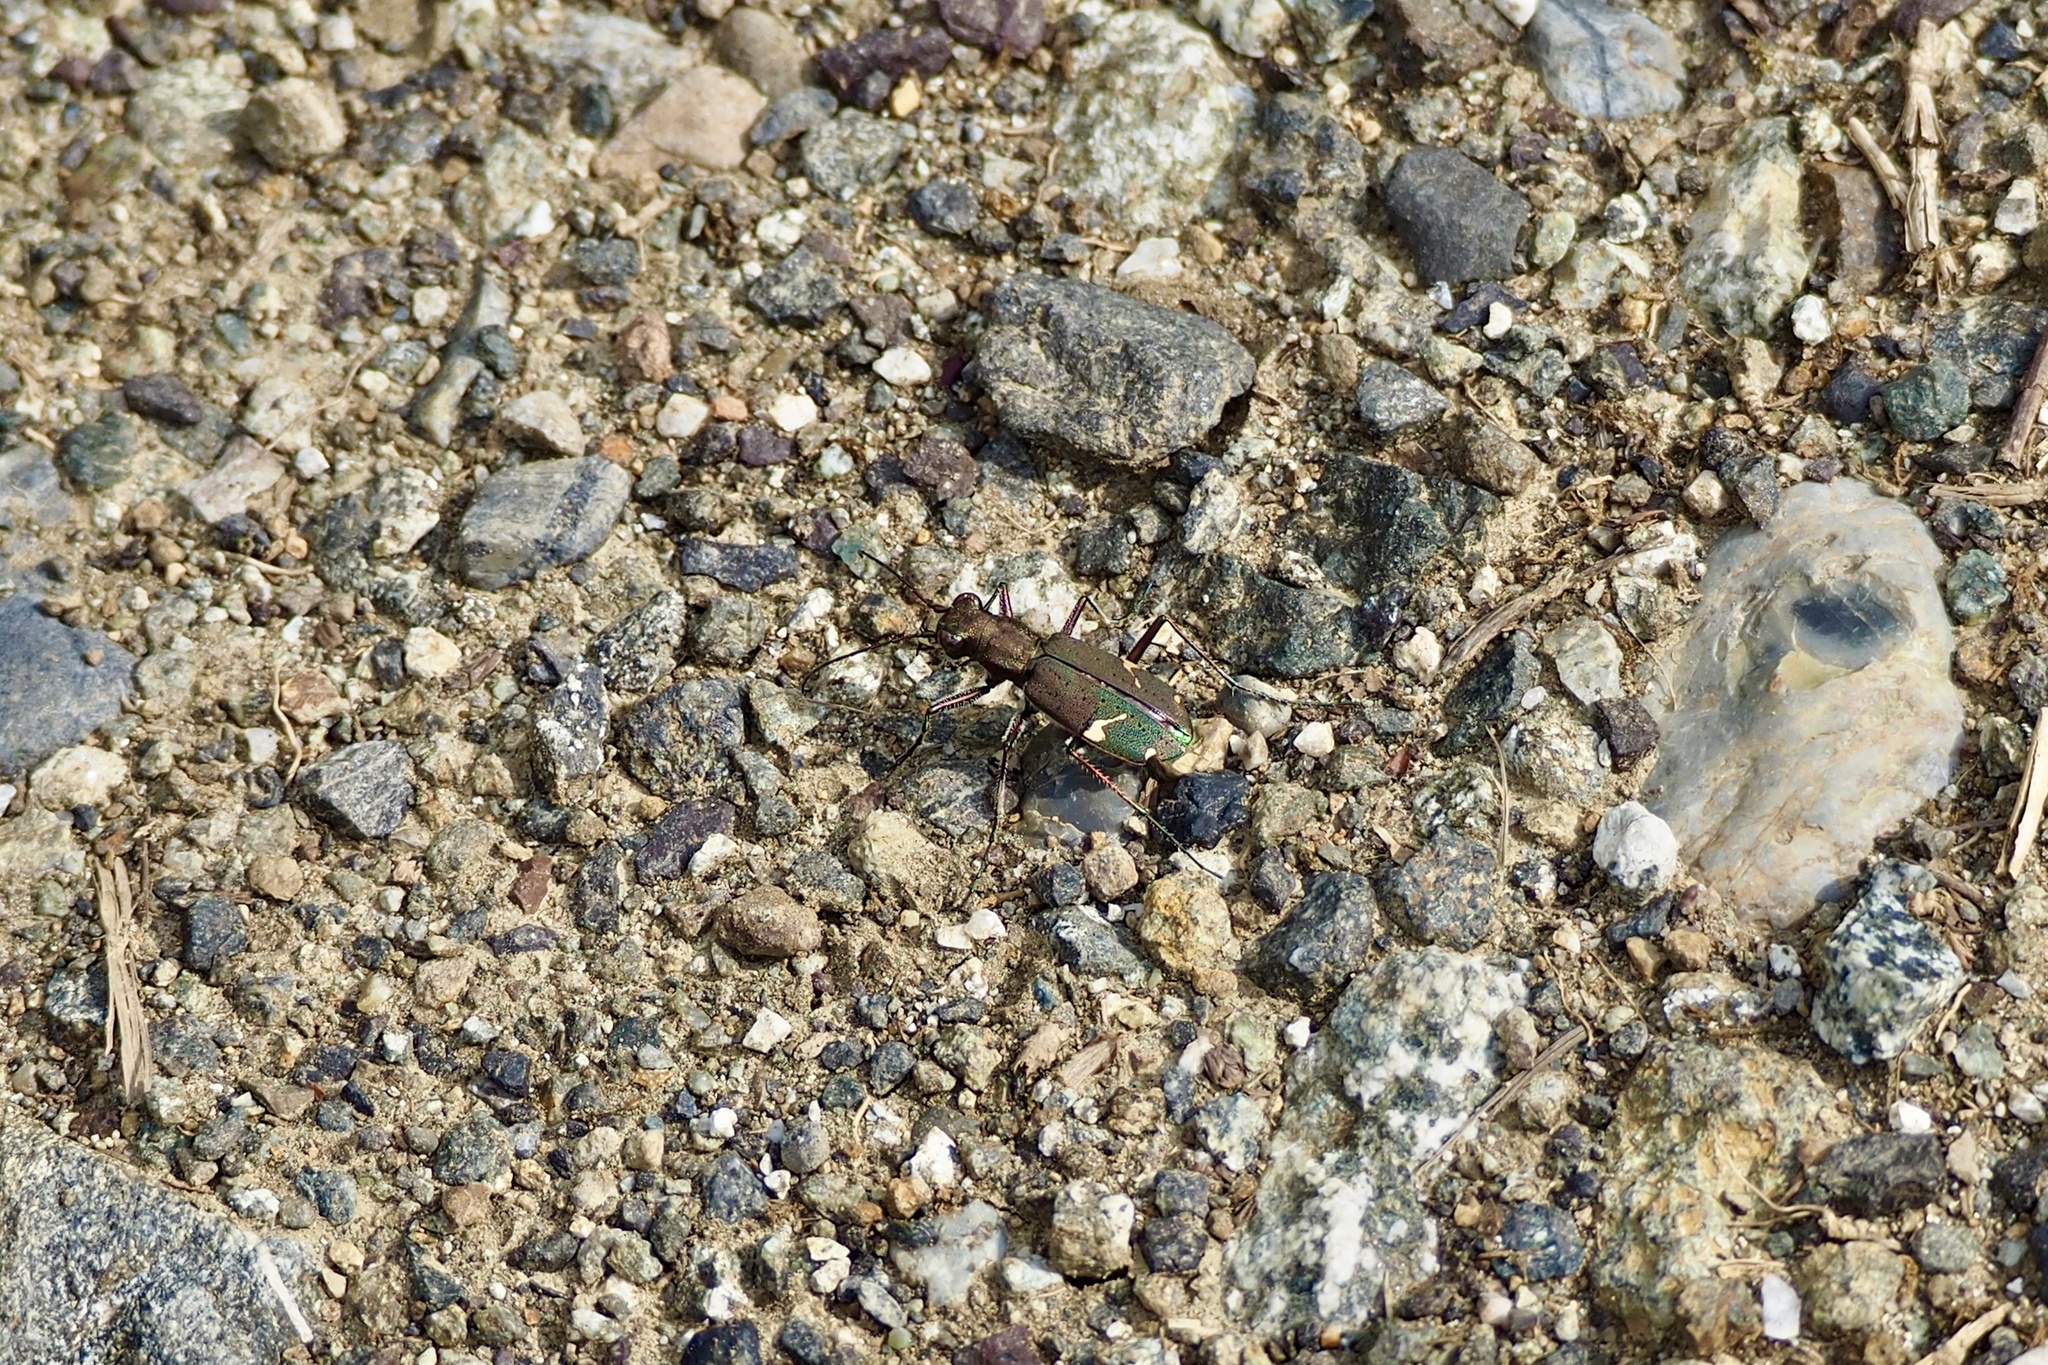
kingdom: Animalia
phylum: Arthropoda
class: Insecta
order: Coleoptera
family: Carabidae
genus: Cicindela
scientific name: Cicindela japana
